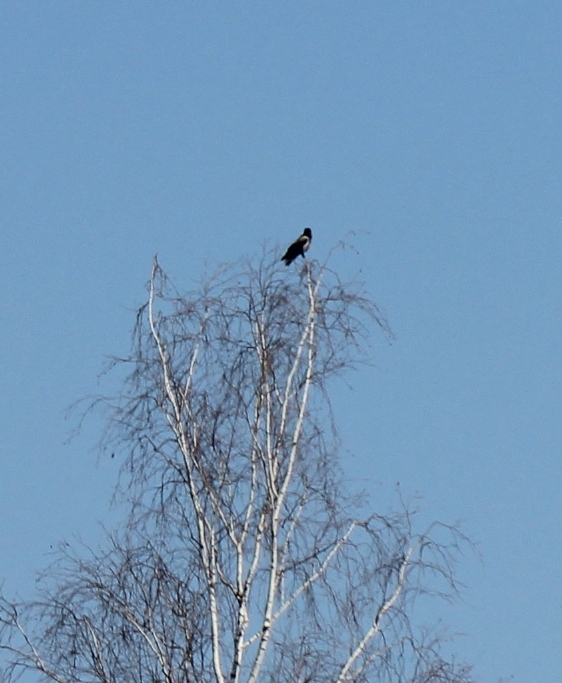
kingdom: Animalia
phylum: Chordata
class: Aves
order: Passeriformes
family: Corvidae
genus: Corvus
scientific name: Corvus cornix
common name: Hooded crow
